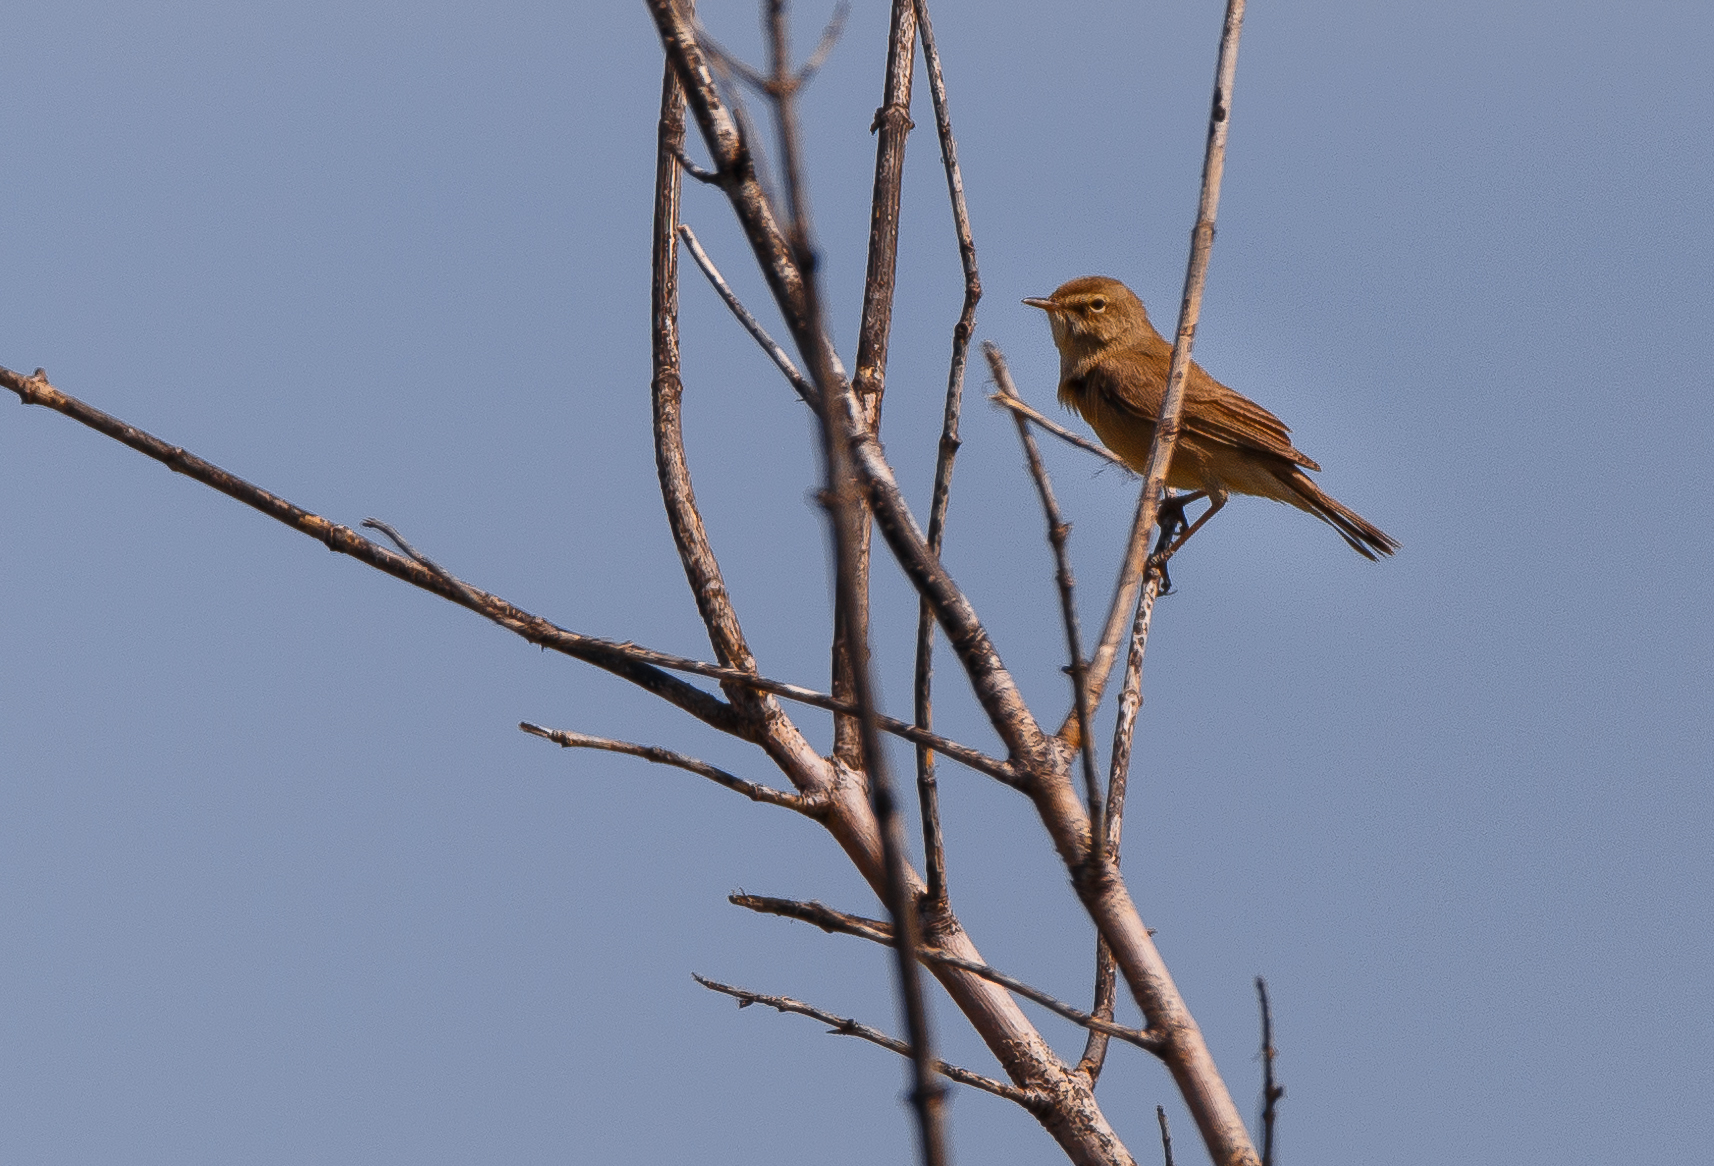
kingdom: Animalia
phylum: Chordata
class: Aves
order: Passeriformes
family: Phylloscopidae
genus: Phylloscopus
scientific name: Phylloscopus collybita
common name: Common chiffchaff
